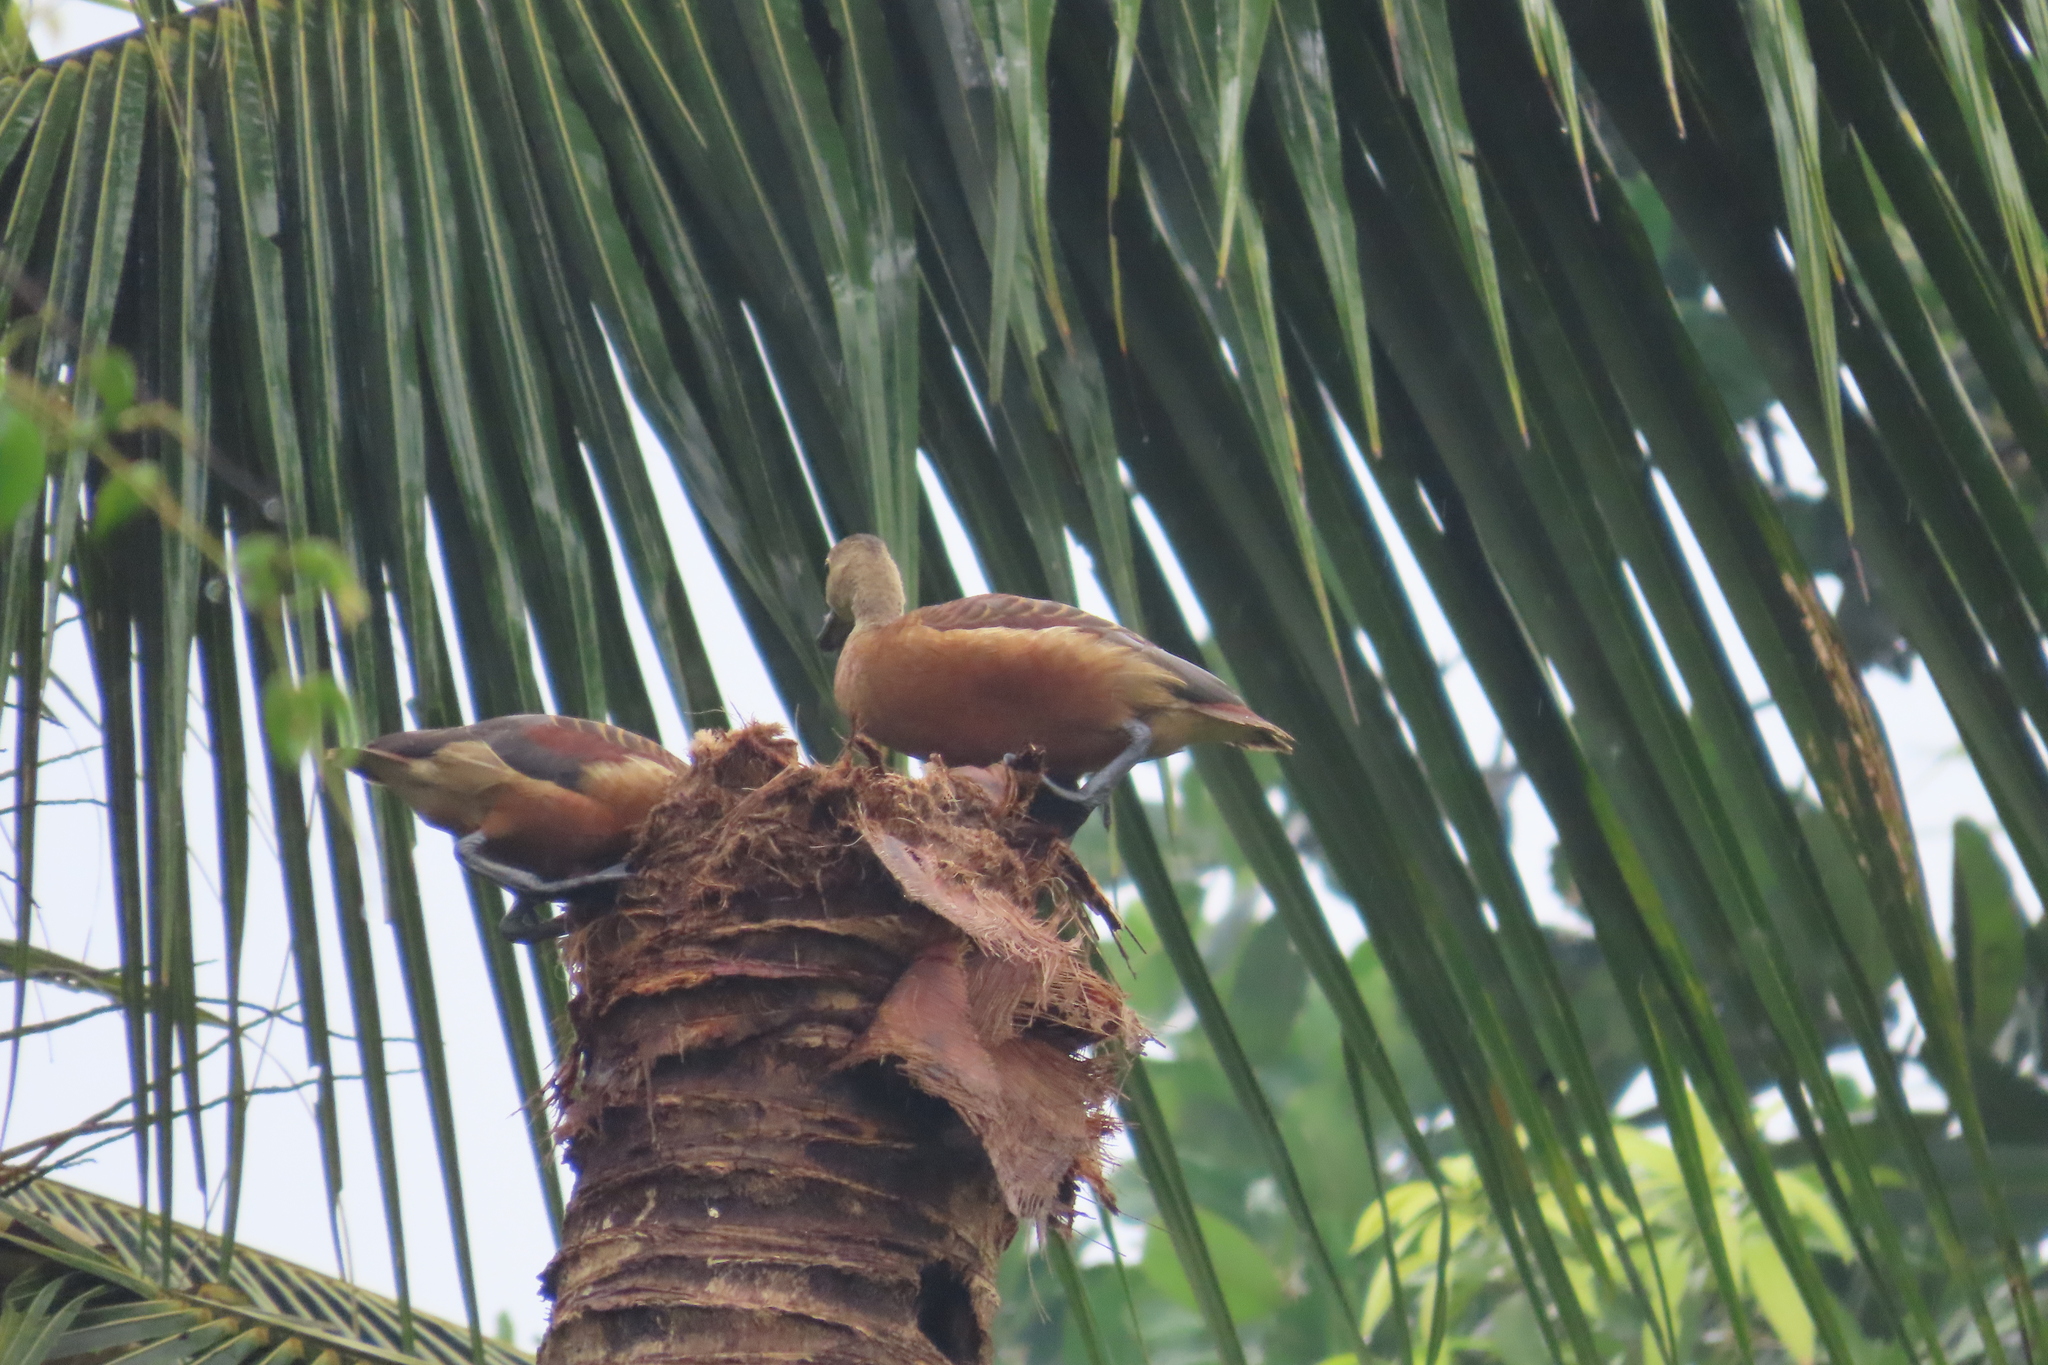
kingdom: Animalia
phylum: Chordata
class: Aves
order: Anseriformes
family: Anatidae
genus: Dendrocygna
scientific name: Dendrocygna javanica
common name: Lesser whistling-duck
